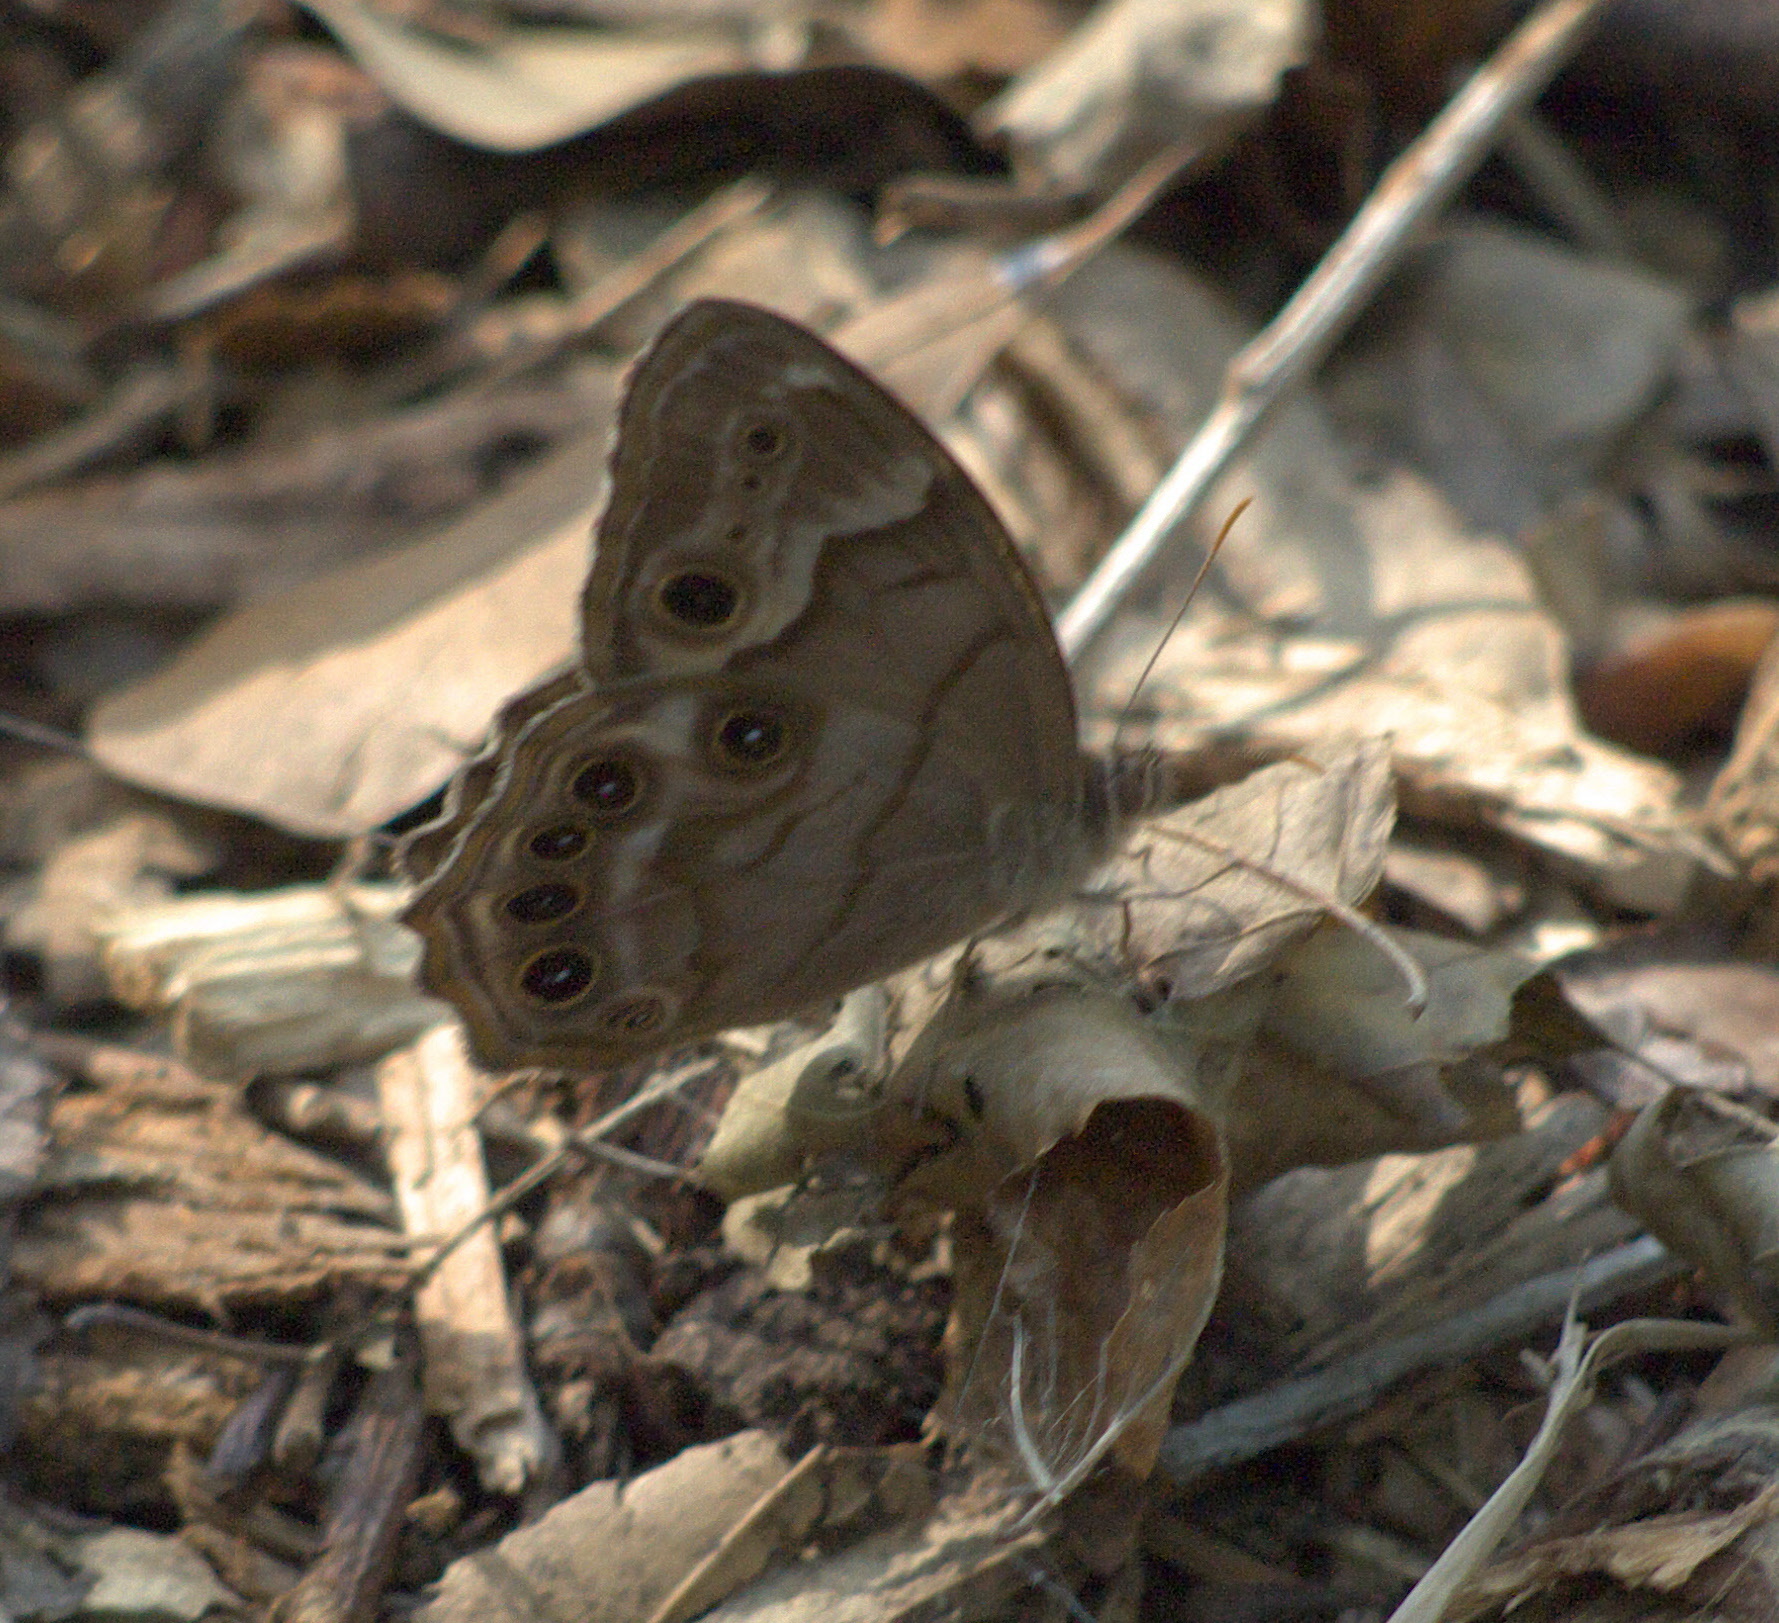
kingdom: Animalia
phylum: Arthropoda
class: Insecta
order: Lepidoptera
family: Nymphalidae
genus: Enodia
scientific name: Enodia portlandia
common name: Southern pearly-eye
